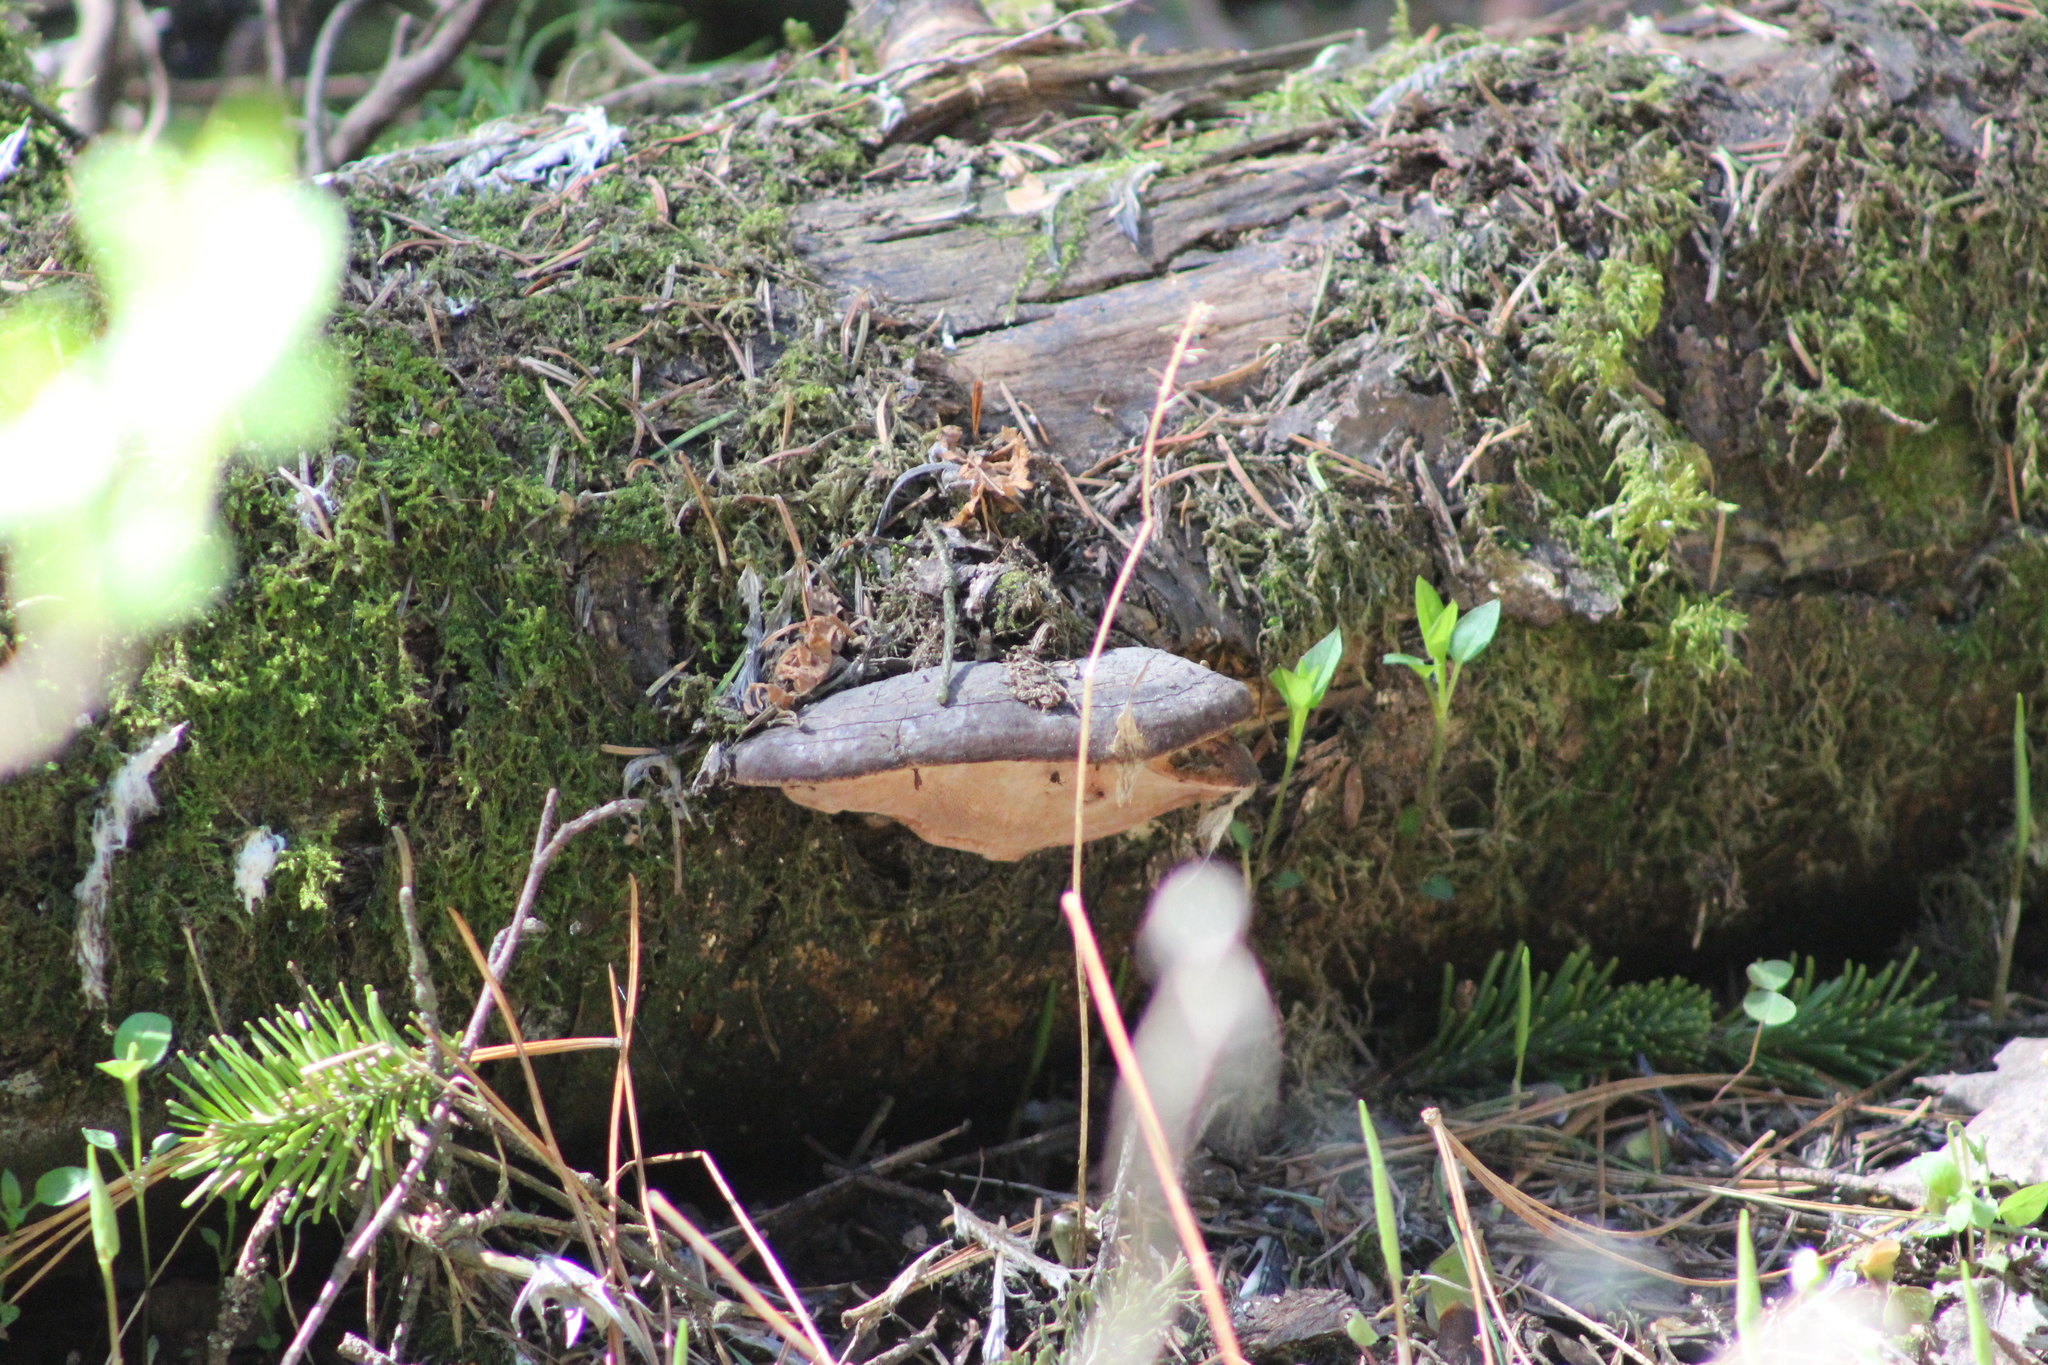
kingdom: Fungi
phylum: Basidiomycota
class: Agaricomycetes
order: Polyporales
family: Fomitopsidaceae
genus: Fomitopsis
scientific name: Fomitopsis pinicola
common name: Red-belted bracket
